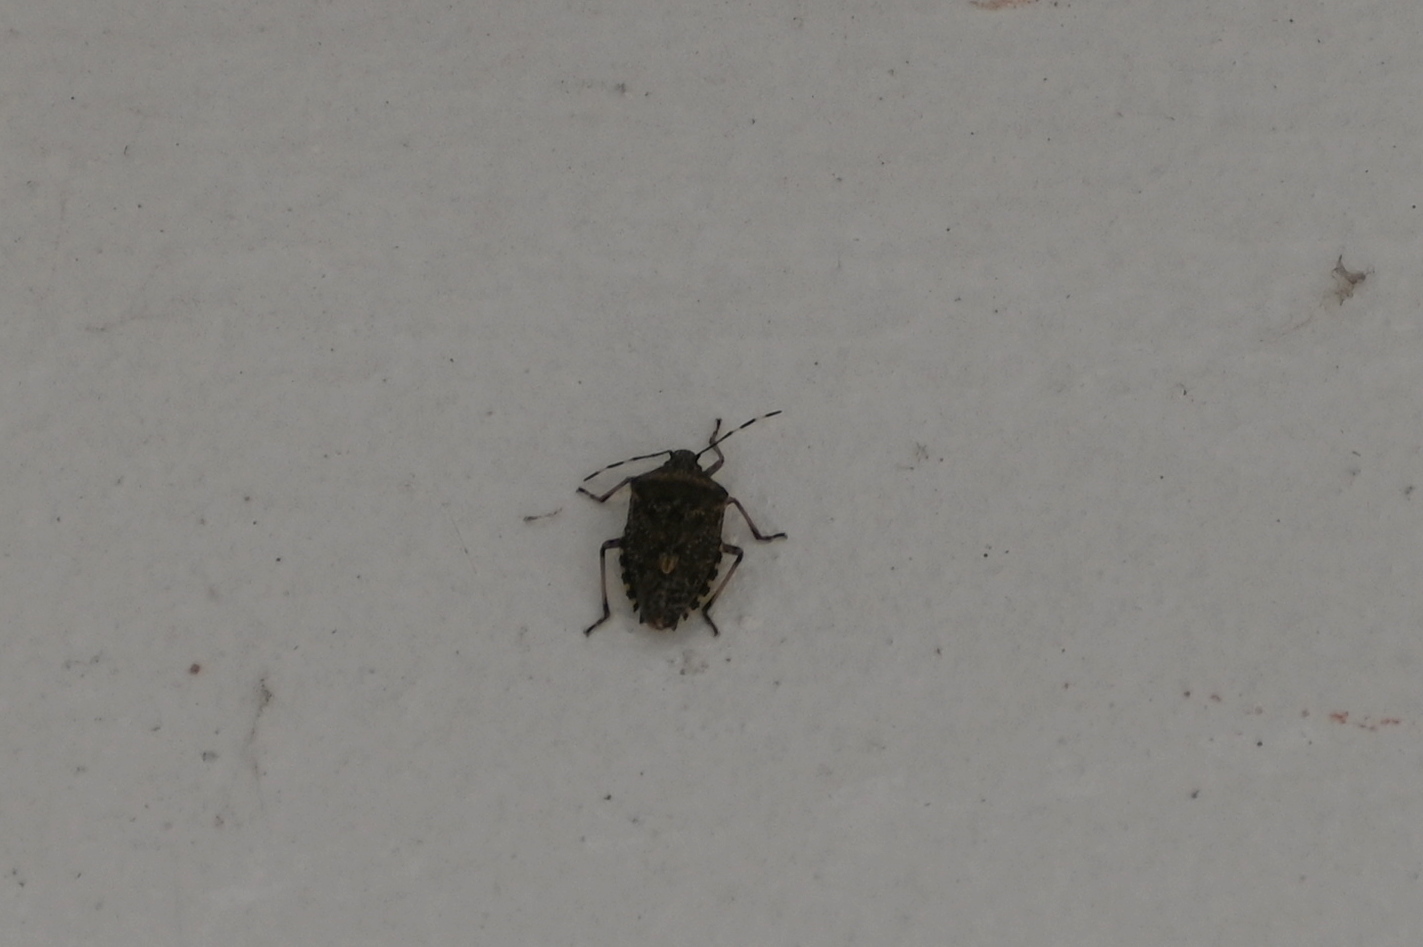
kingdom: Animalia
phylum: Arthropoda
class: Insecta
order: Hemiptera
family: Pentatomidae
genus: Rhaphigaster
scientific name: Rhaphigaster nebulosa
